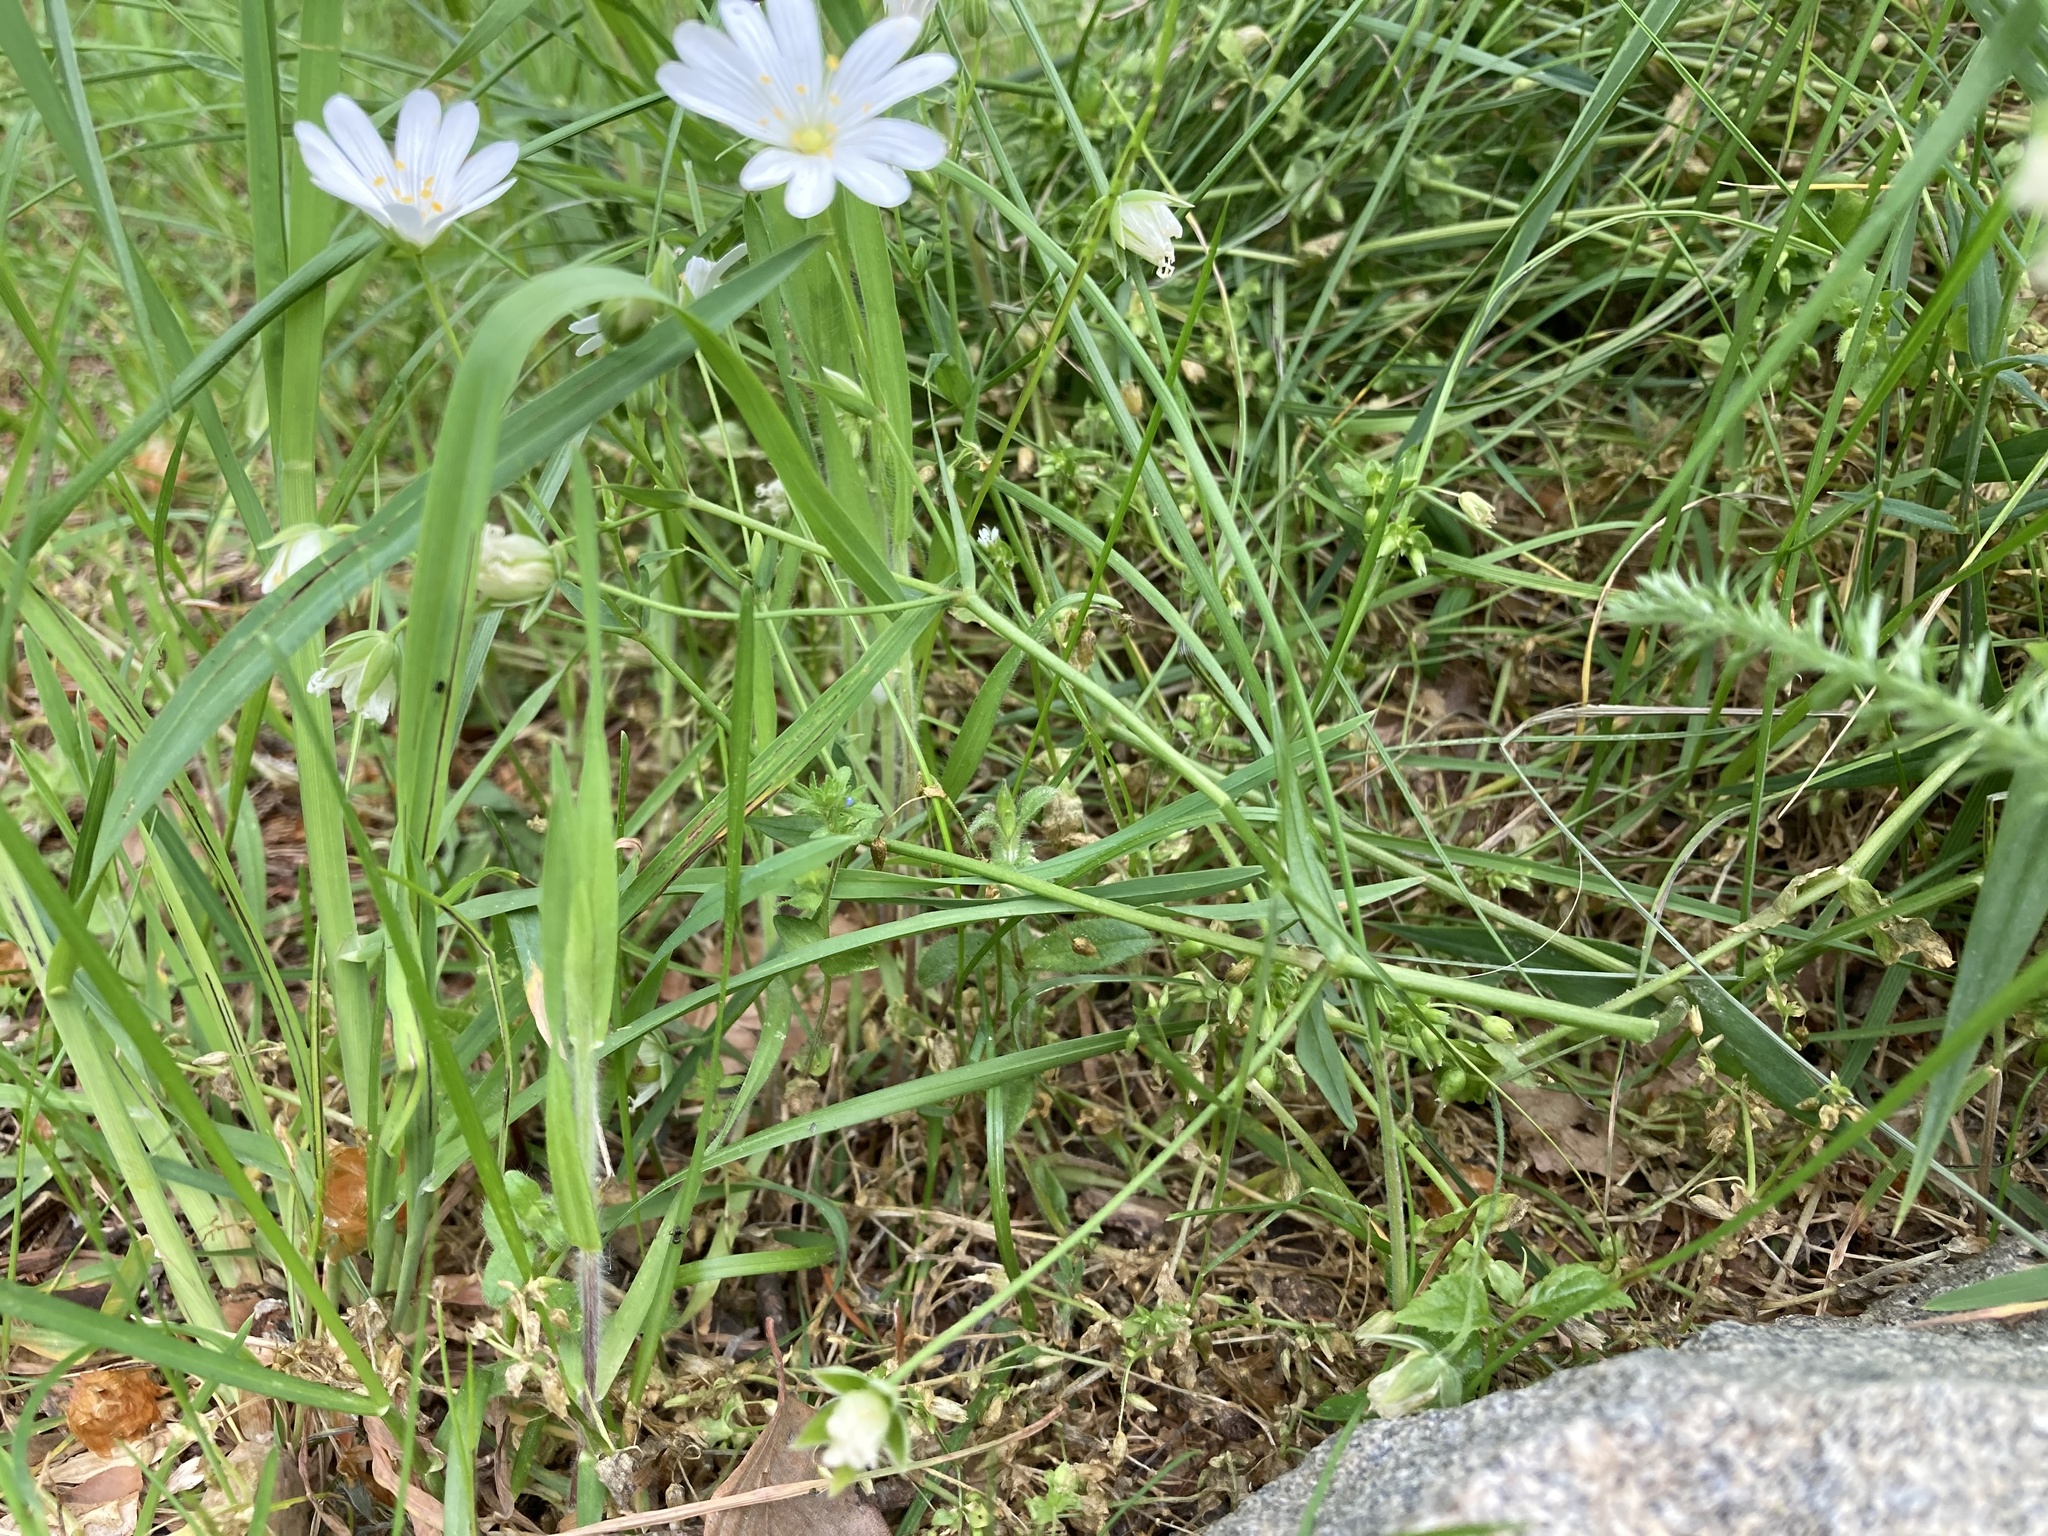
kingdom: Plantae
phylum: Tracheophyta
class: Magnoliopsida
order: Caryophyllales
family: Caryophyllaceae
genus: Rabelera
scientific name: Rabelera holostea
